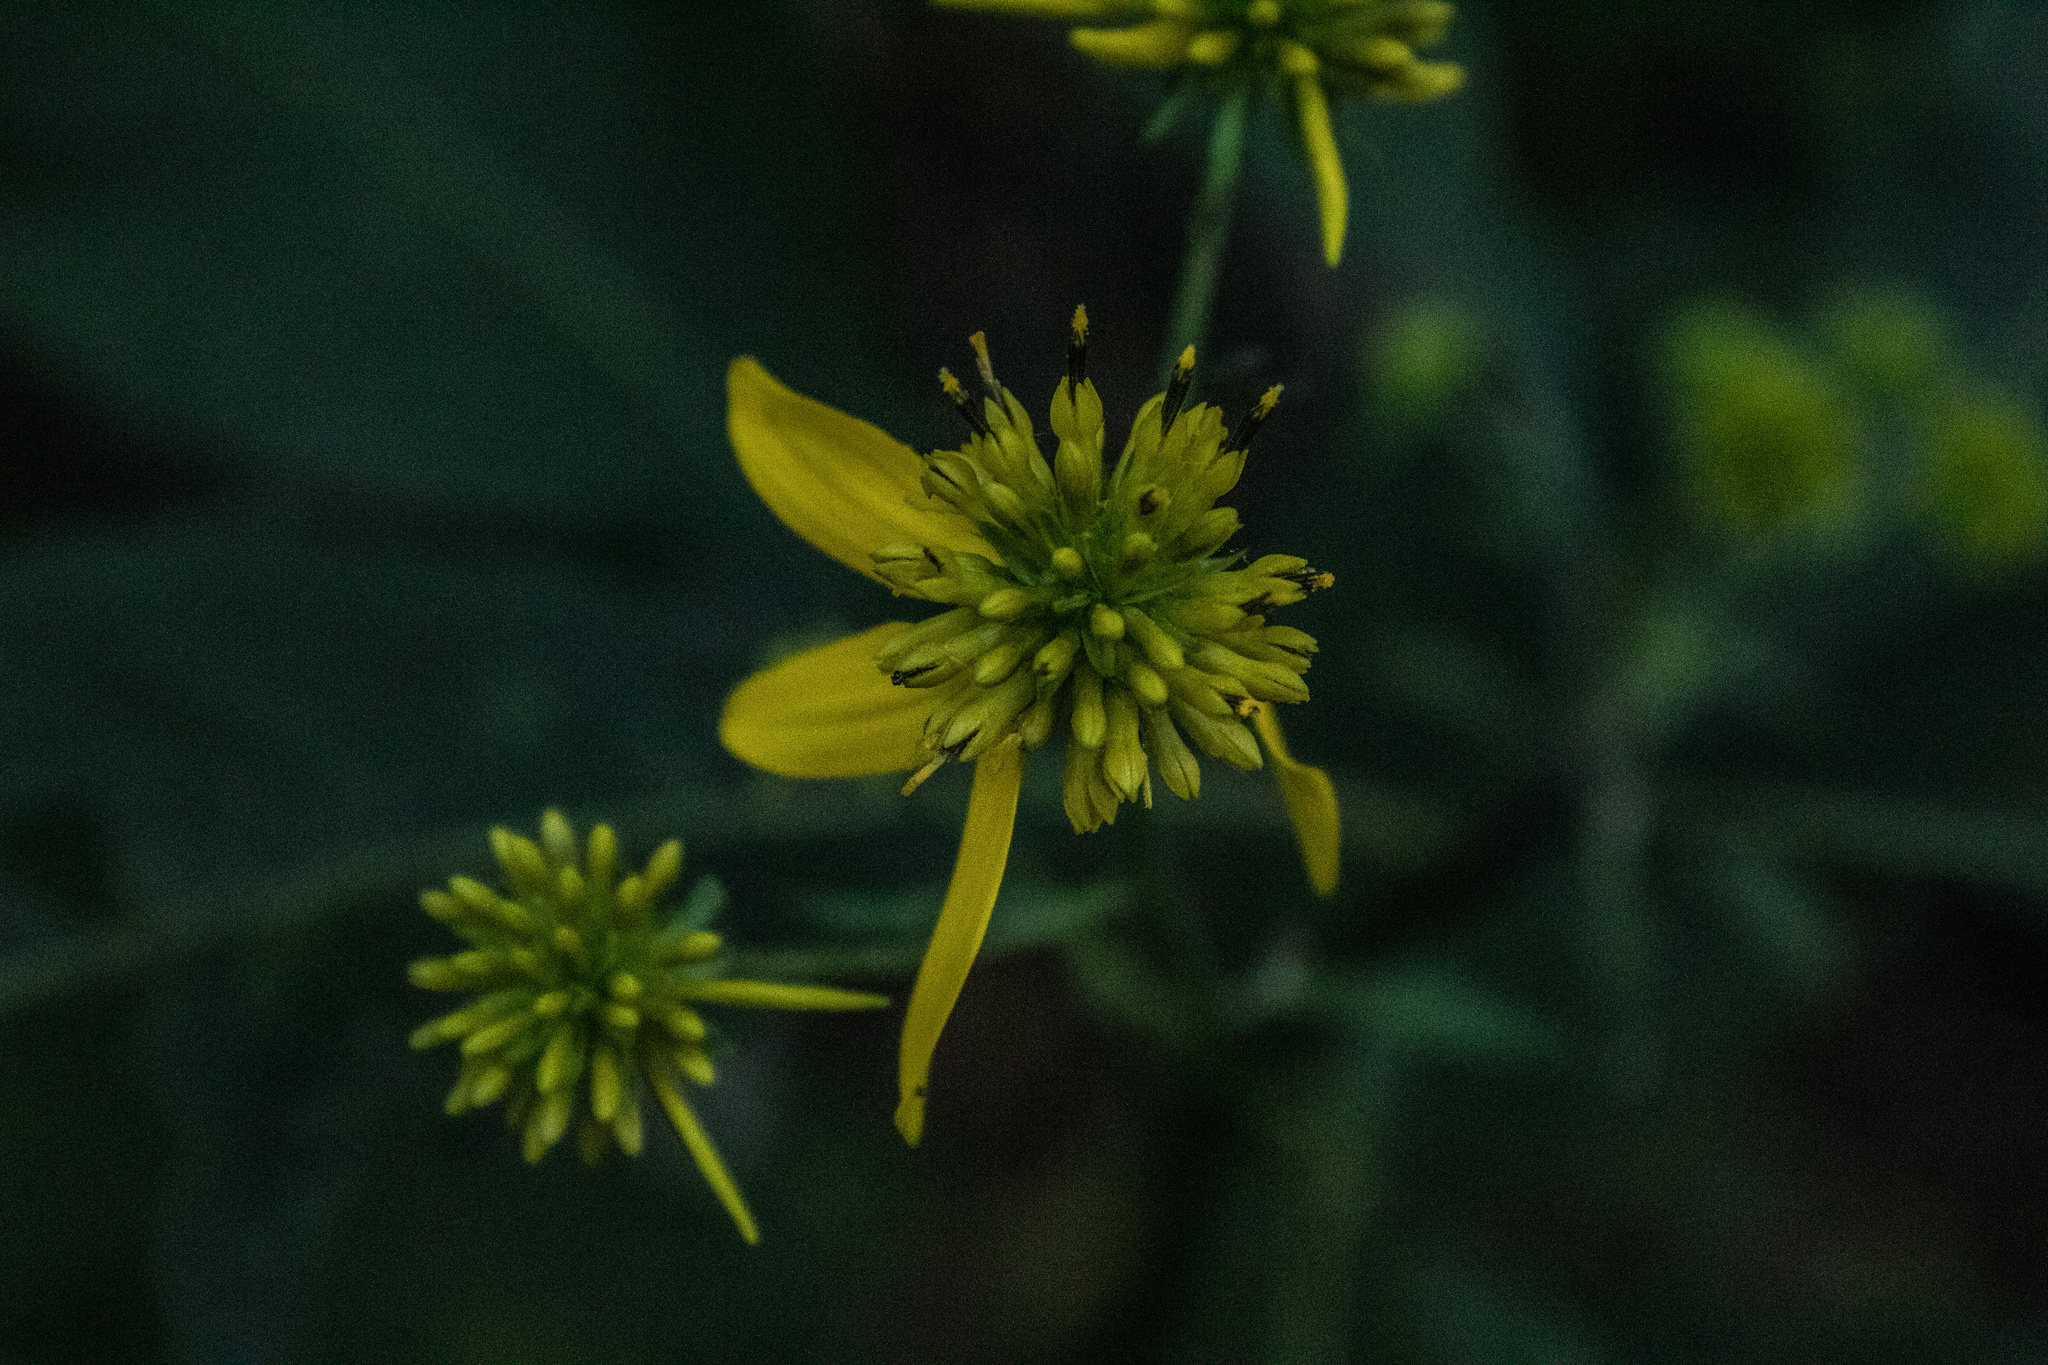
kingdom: Plantae
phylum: Tracheophyta
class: Magnoliopsida
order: Asterales
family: Asteraceae
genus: Verbesina
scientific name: Verbesina alternifolia
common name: Wingstem
